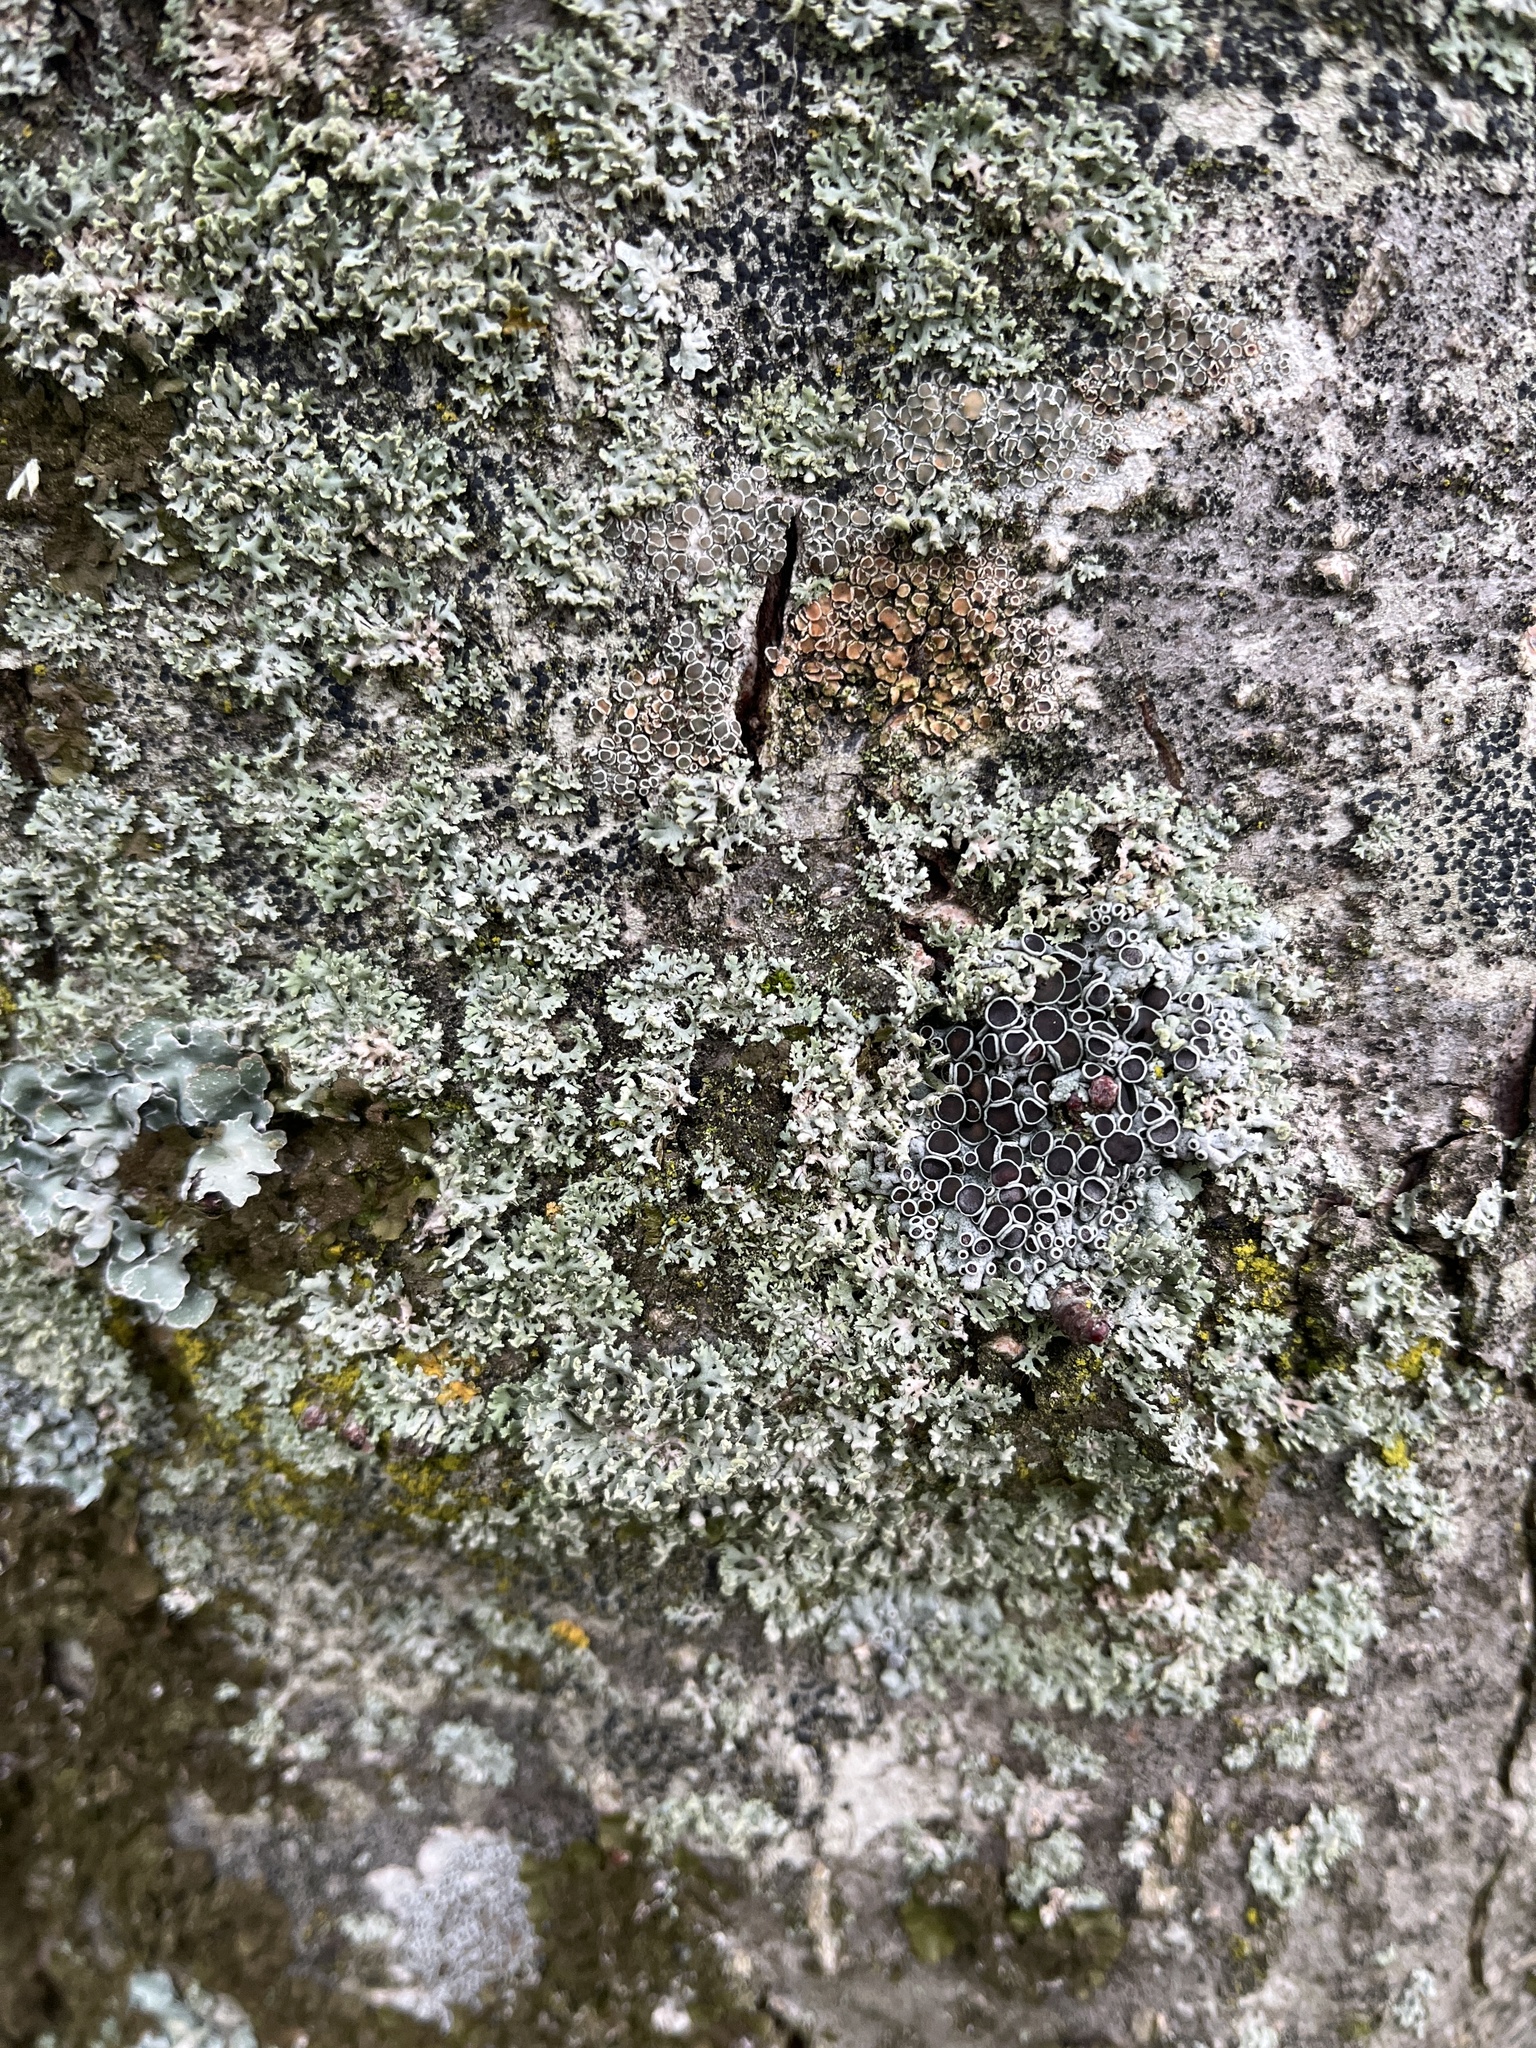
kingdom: Fungi
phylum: Ascomycota
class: Lecanoromycetes
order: Caliciales
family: Physciaceae
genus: Physcia
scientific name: Physcia aipolia
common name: Hoary rosette lichen
